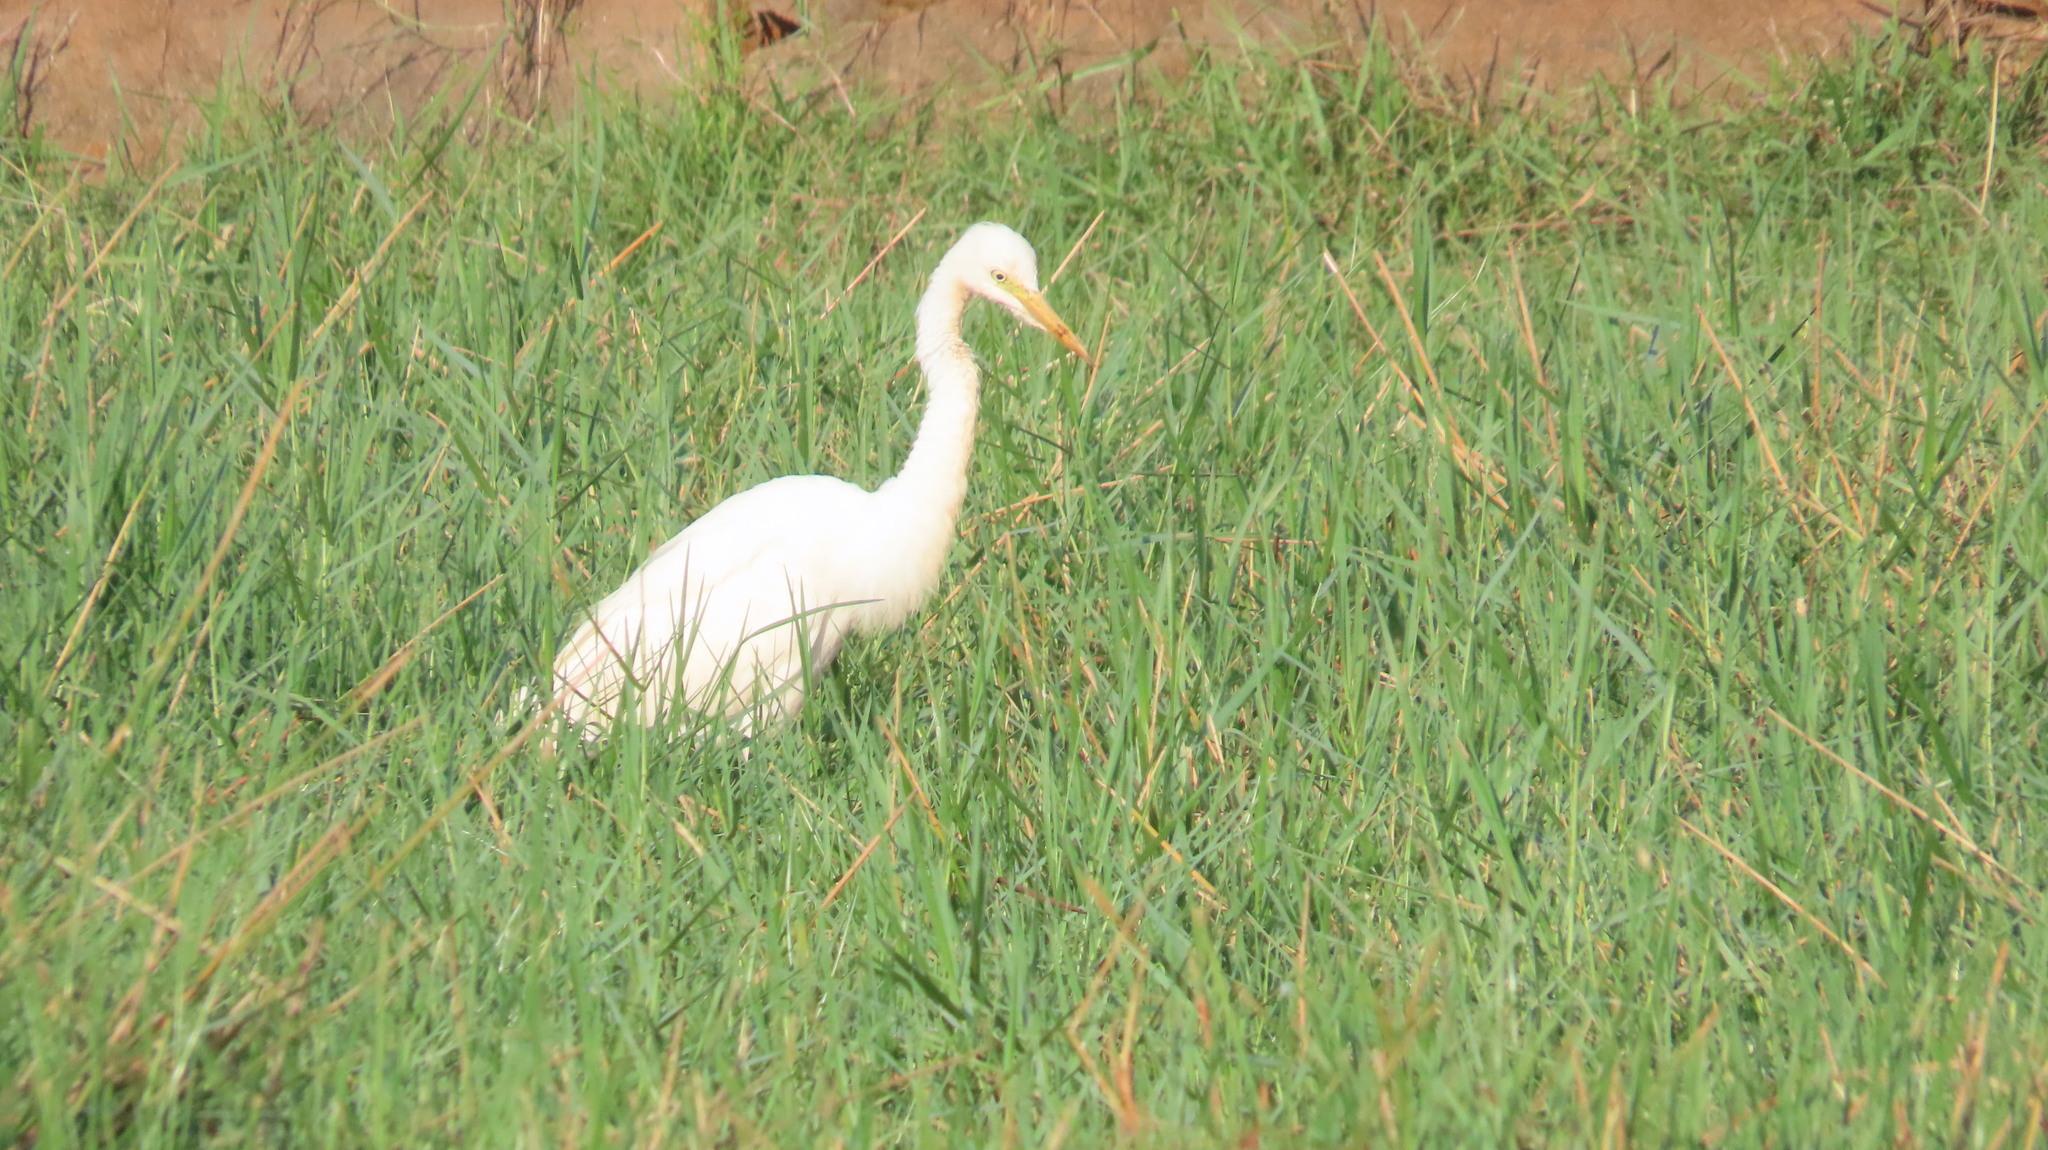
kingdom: Animalia
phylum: Chordata
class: Aves
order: Pelecaniformes
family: Ardeidae
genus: Egretta
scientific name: Egretta intermedia
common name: Intermediate egret
